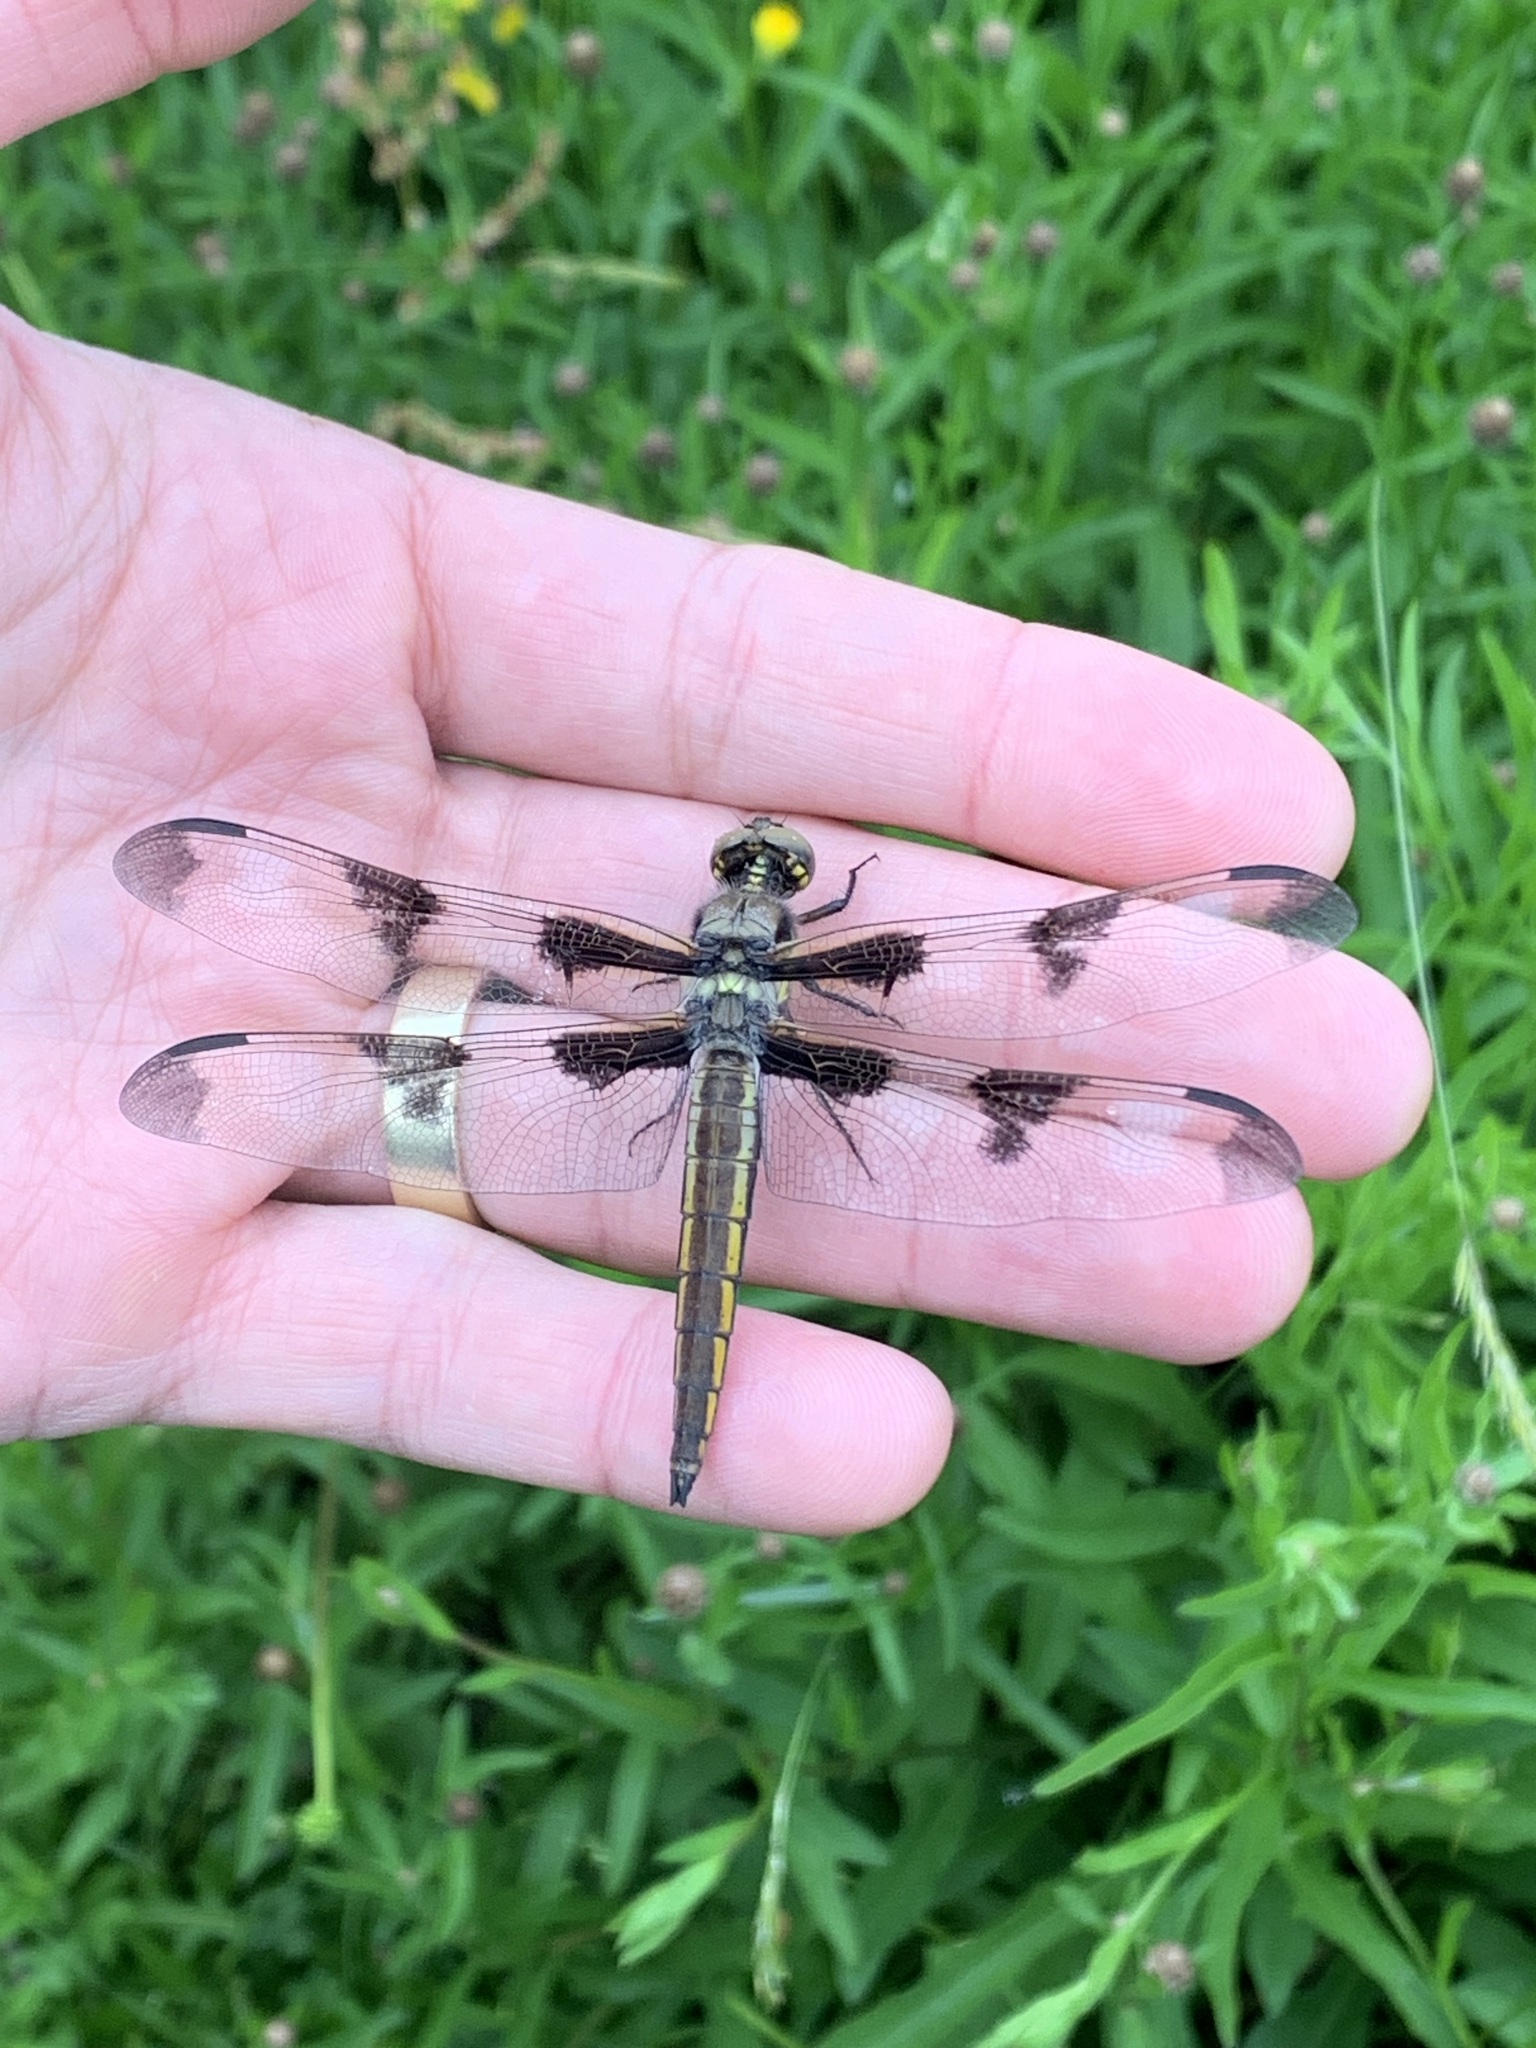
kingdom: Animalia
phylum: Arthropoda
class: Insecta
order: Odonata
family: Libellulidae
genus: Libellula
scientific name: Libellula pulchella
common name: Twelve-spotted skimmer
